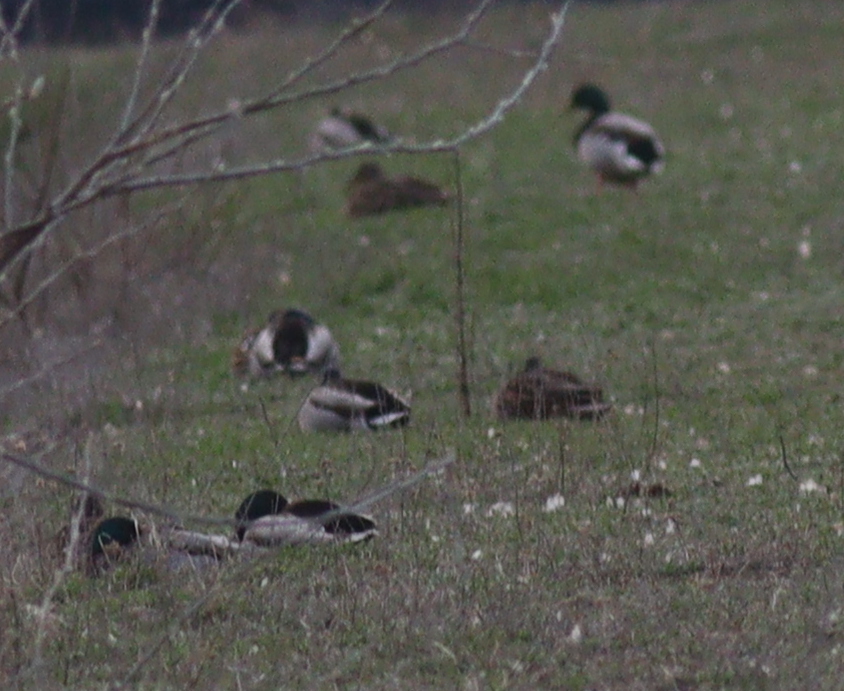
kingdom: Animalia
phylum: Chordata
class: Aves
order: Anseriformes
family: Anatidae
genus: Anas
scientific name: Anas platyrhynchos
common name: Mallard
